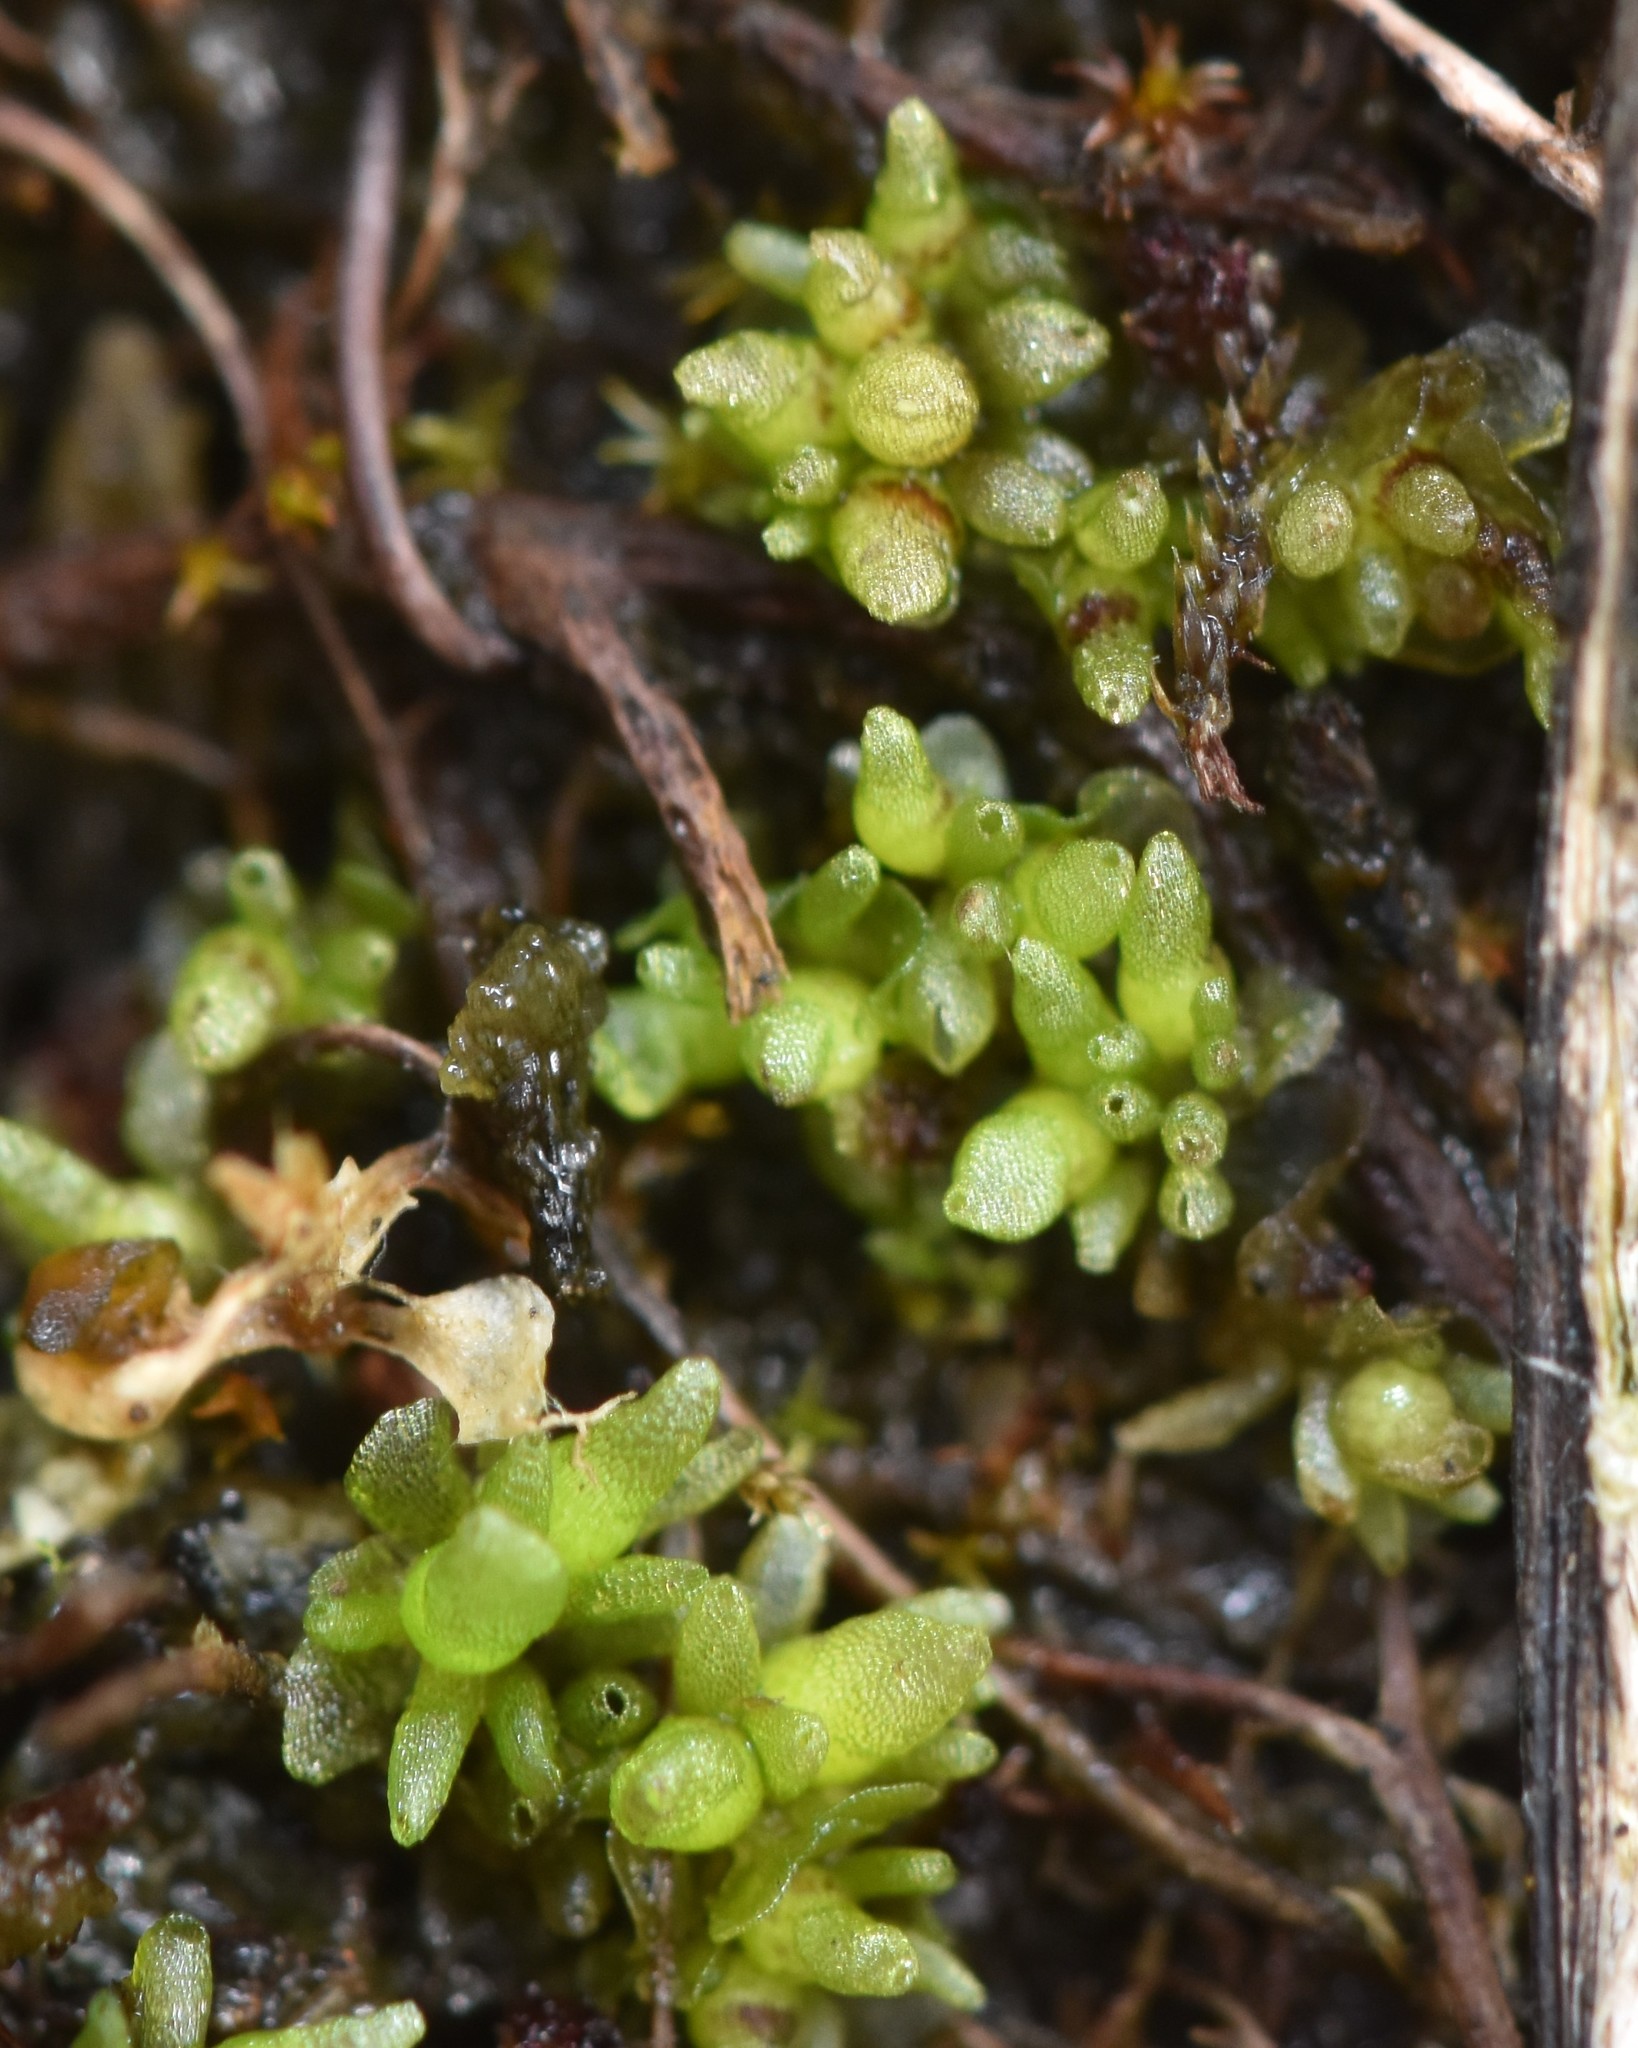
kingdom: Plantae
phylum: Marchantiophyta
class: Marchantiopsida
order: Sphaerocarpales
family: Sphaerocarpaceae
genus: Sphaerocarpos
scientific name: Sphaerocarpos texanus
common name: Texas balloonwort
